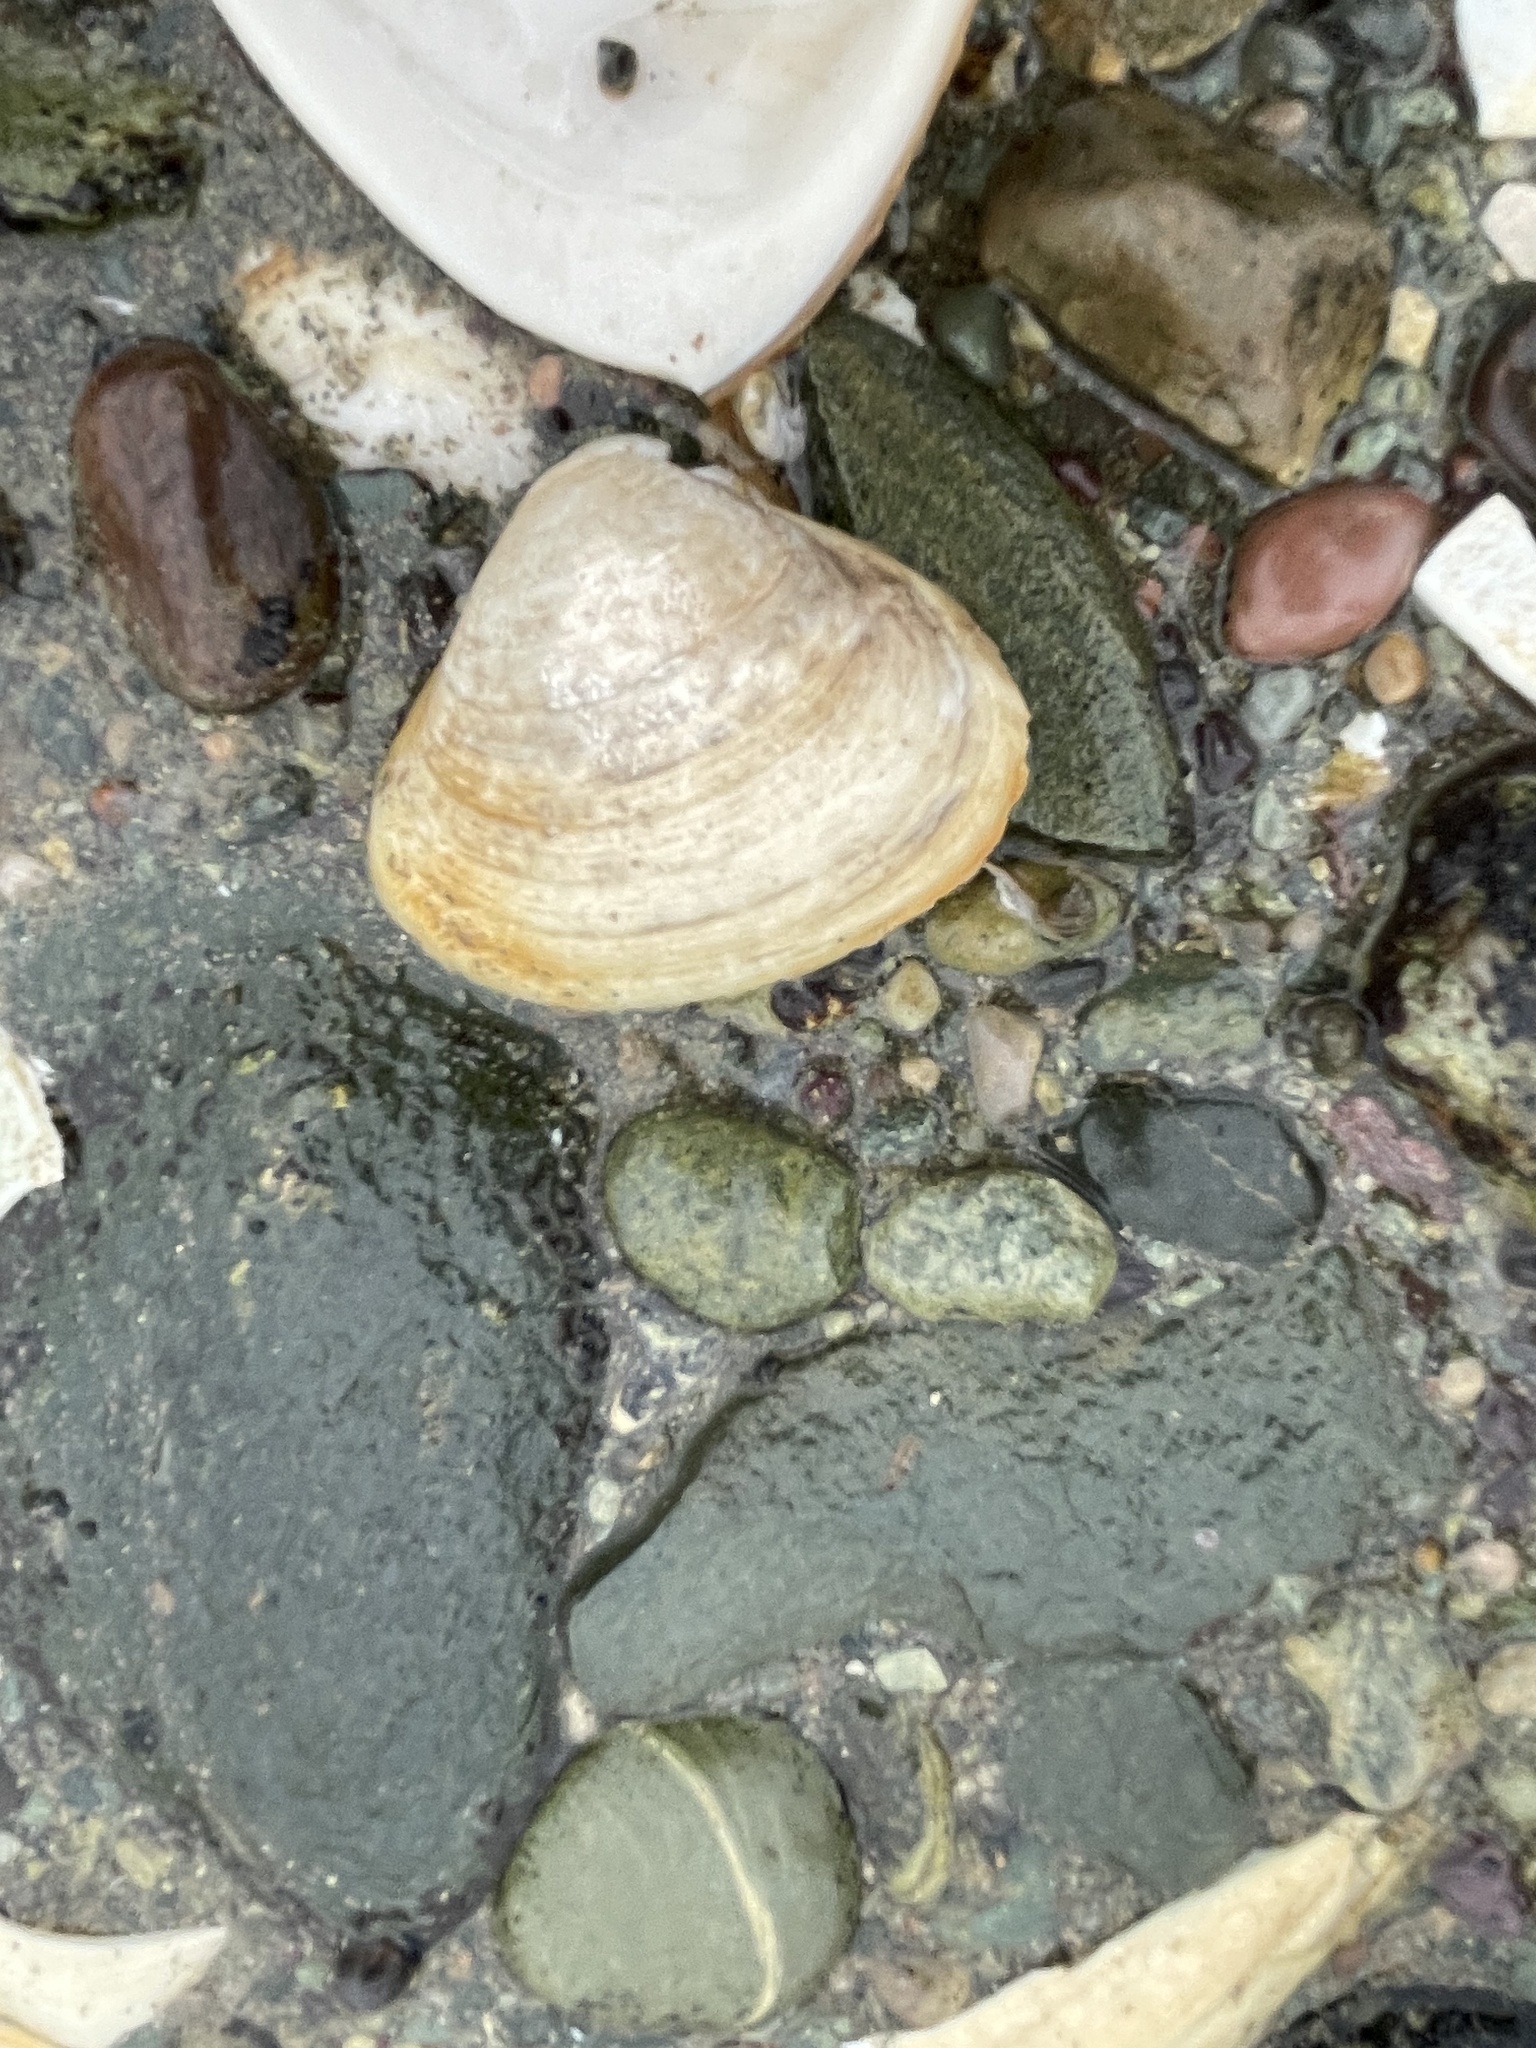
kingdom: Animalia
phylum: Mollusca
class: Bivalvia
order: Venerida
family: Mactridae
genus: Spisula
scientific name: Spisula solidissima
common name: Atlantic surf clam
